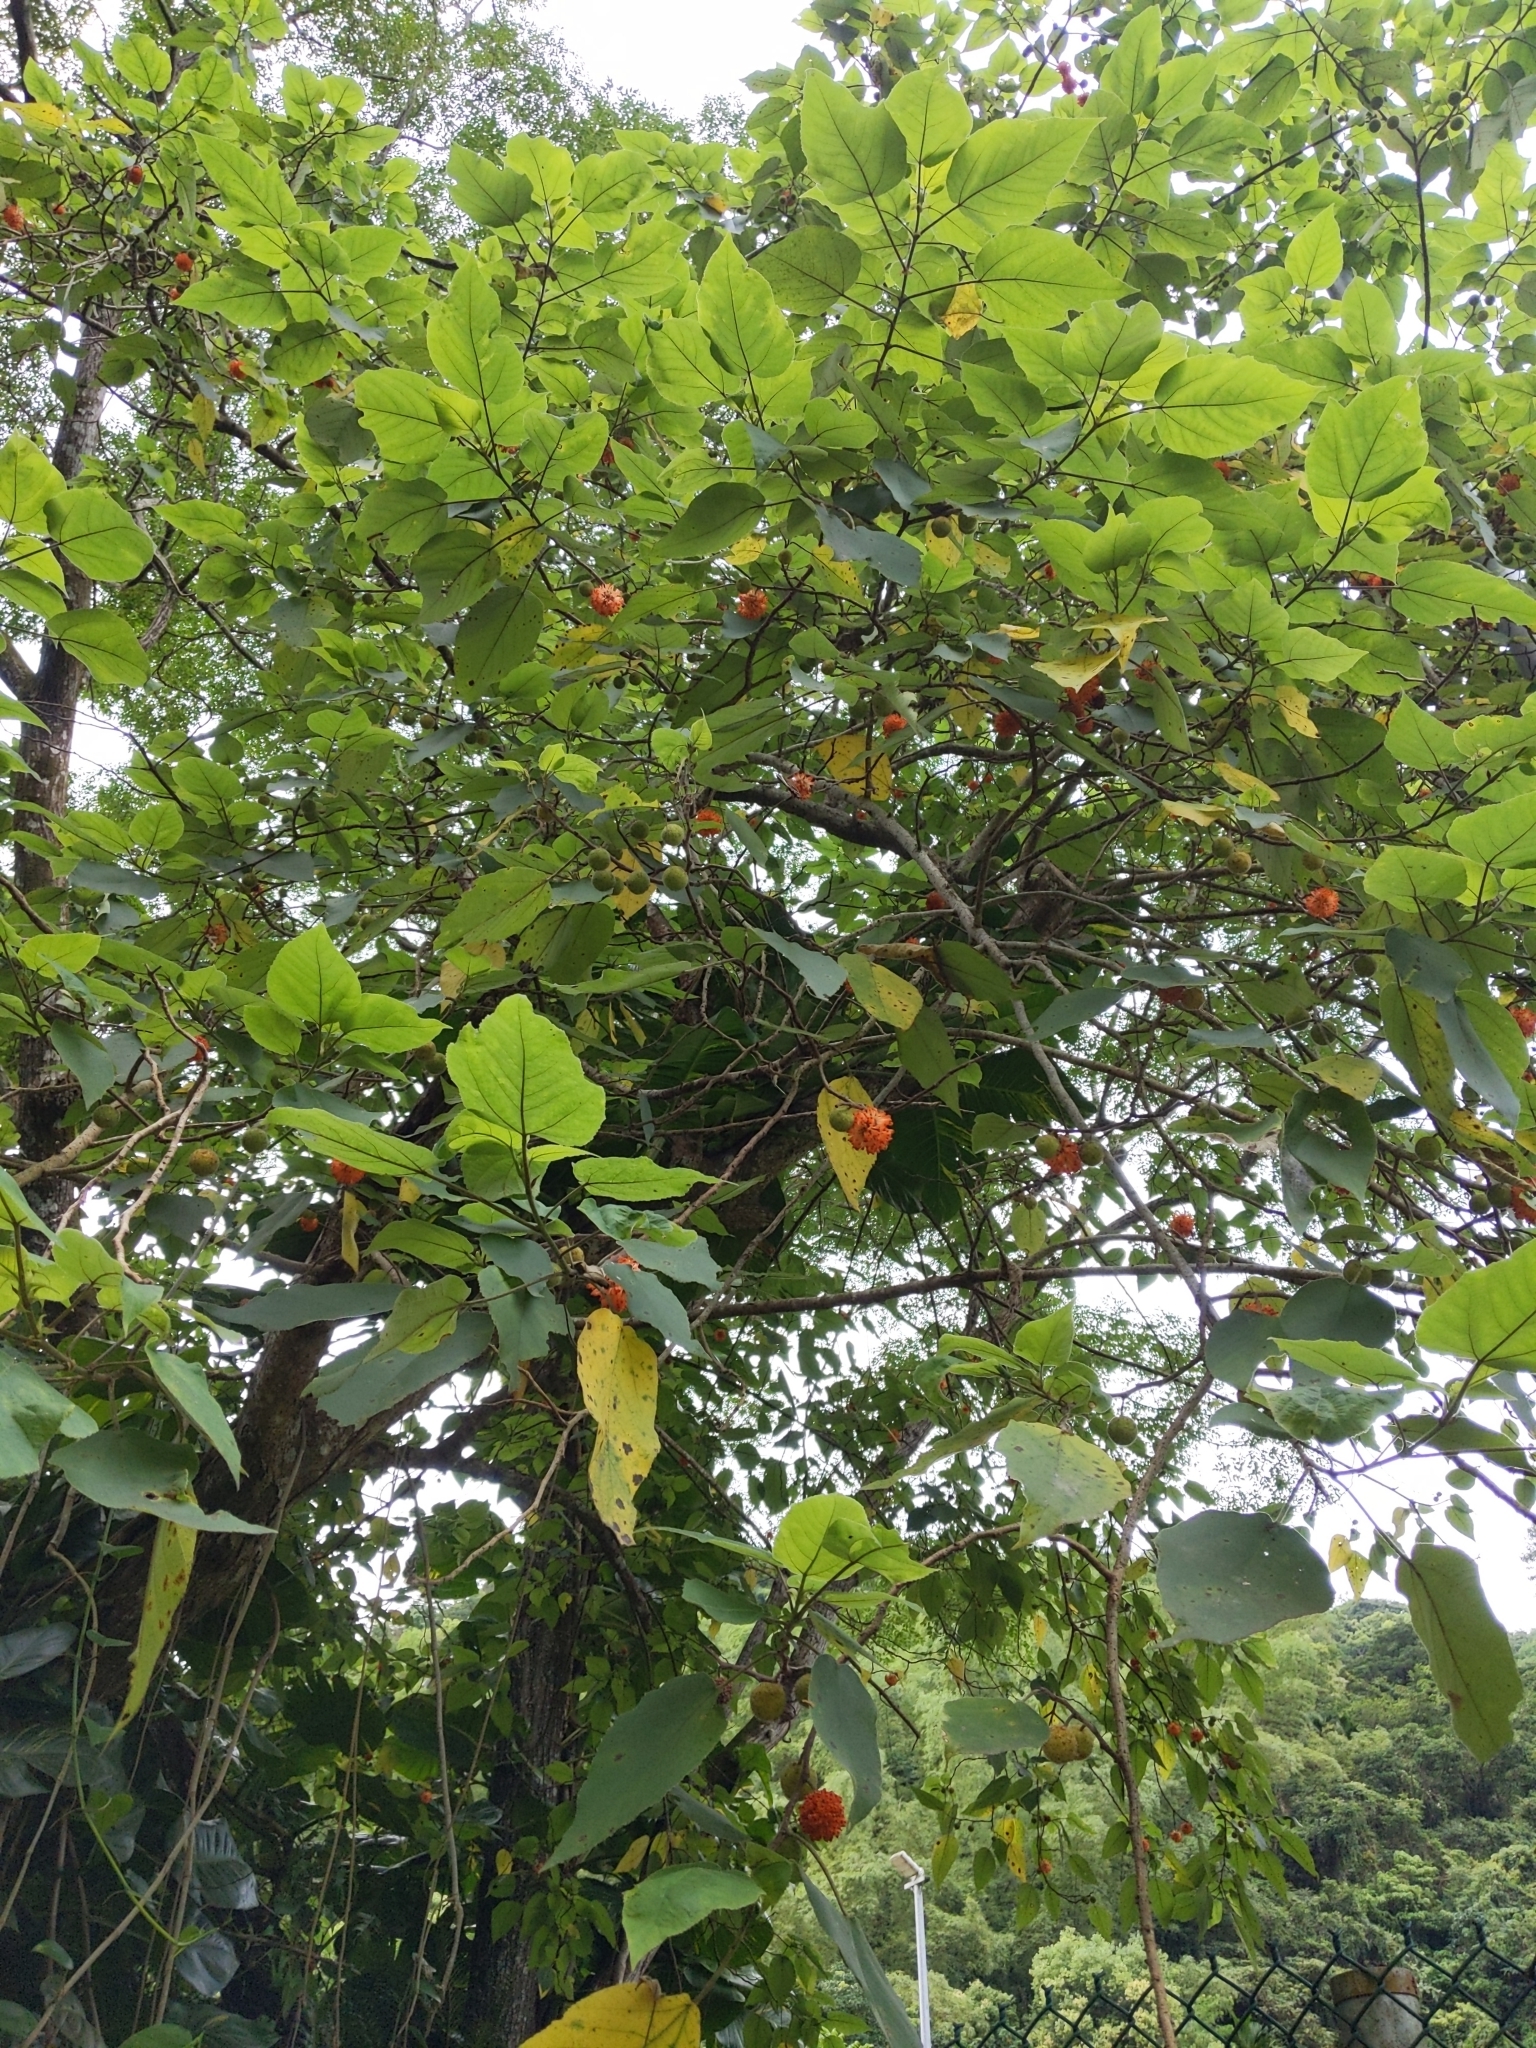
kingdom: Plantae
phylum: Tracheophyta
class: Magnoliopsida
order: Rosales
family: Moraceae
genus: Broussonetia
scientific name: Broussonetia papyrifera
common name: Paper mulberry
